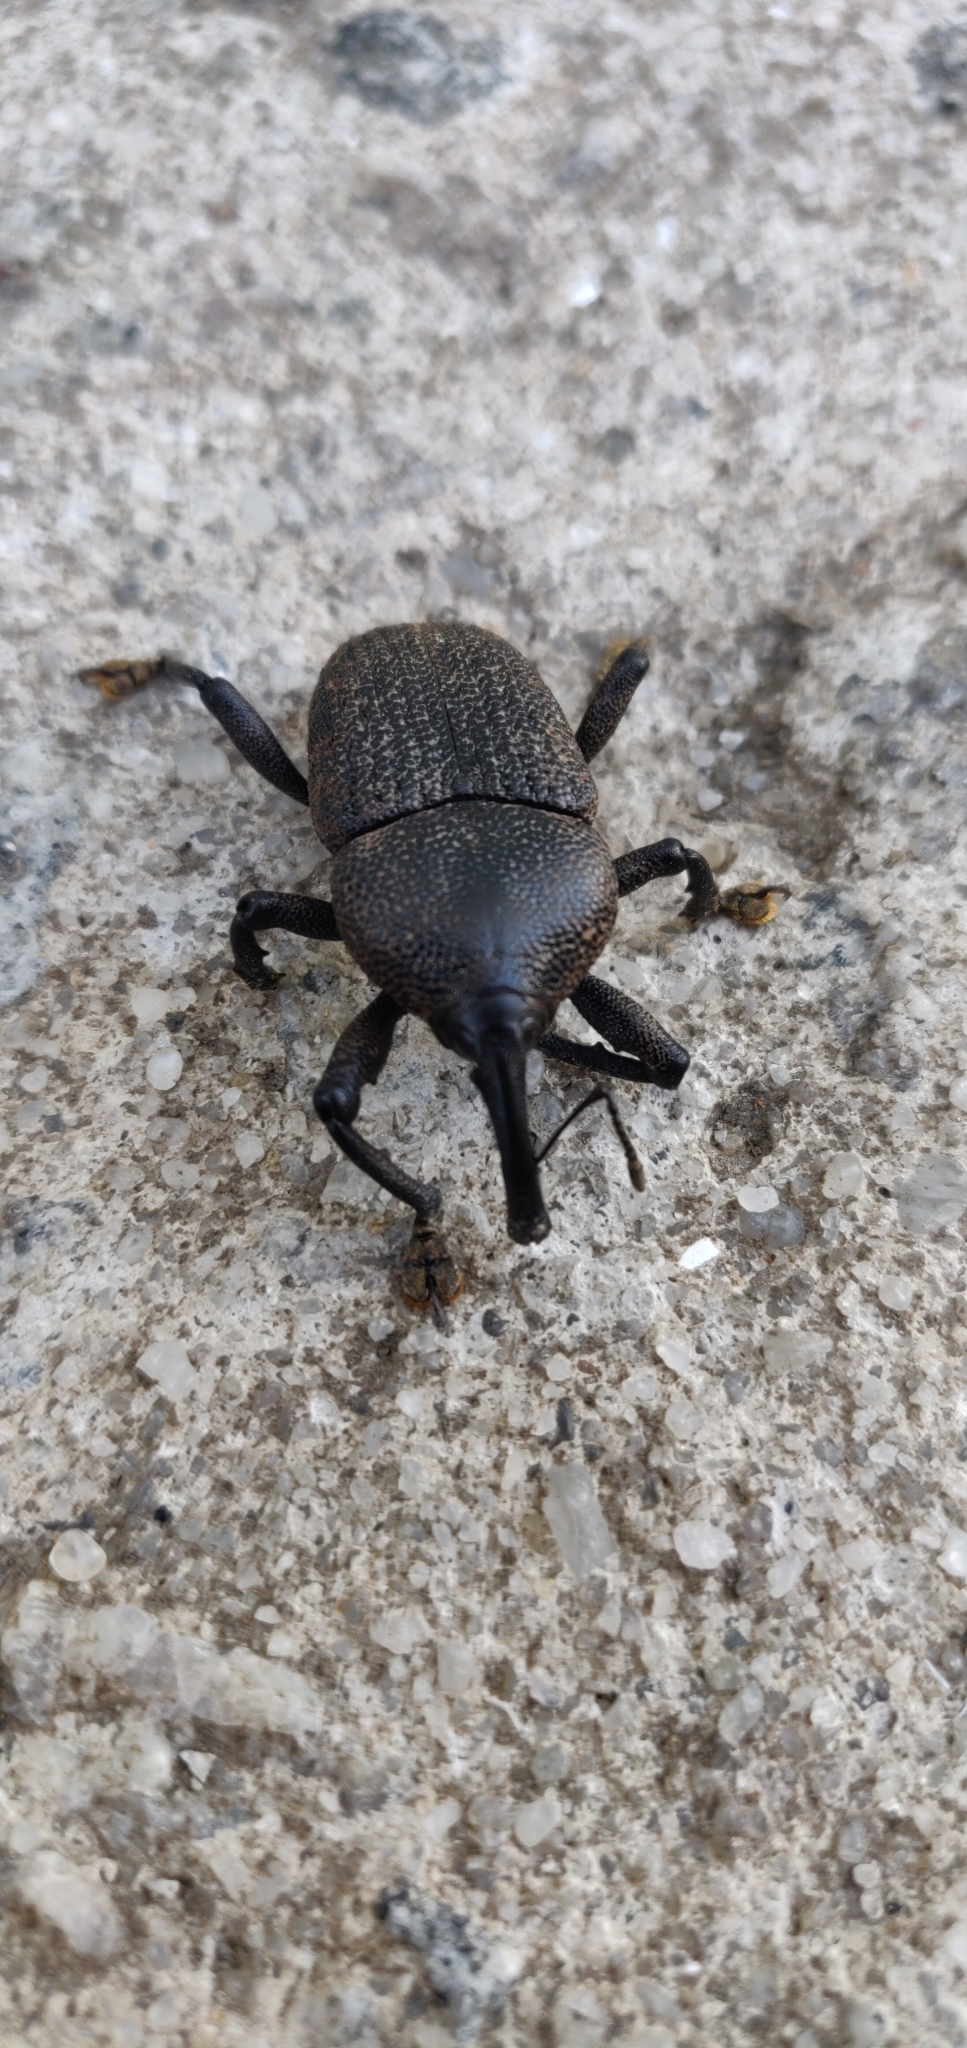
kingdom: Animalia
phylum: Arthropoda
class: Insecta
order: Coleoptera
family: Curculionidae
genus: Homalinotus
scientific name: Homalinotus coriaceus
